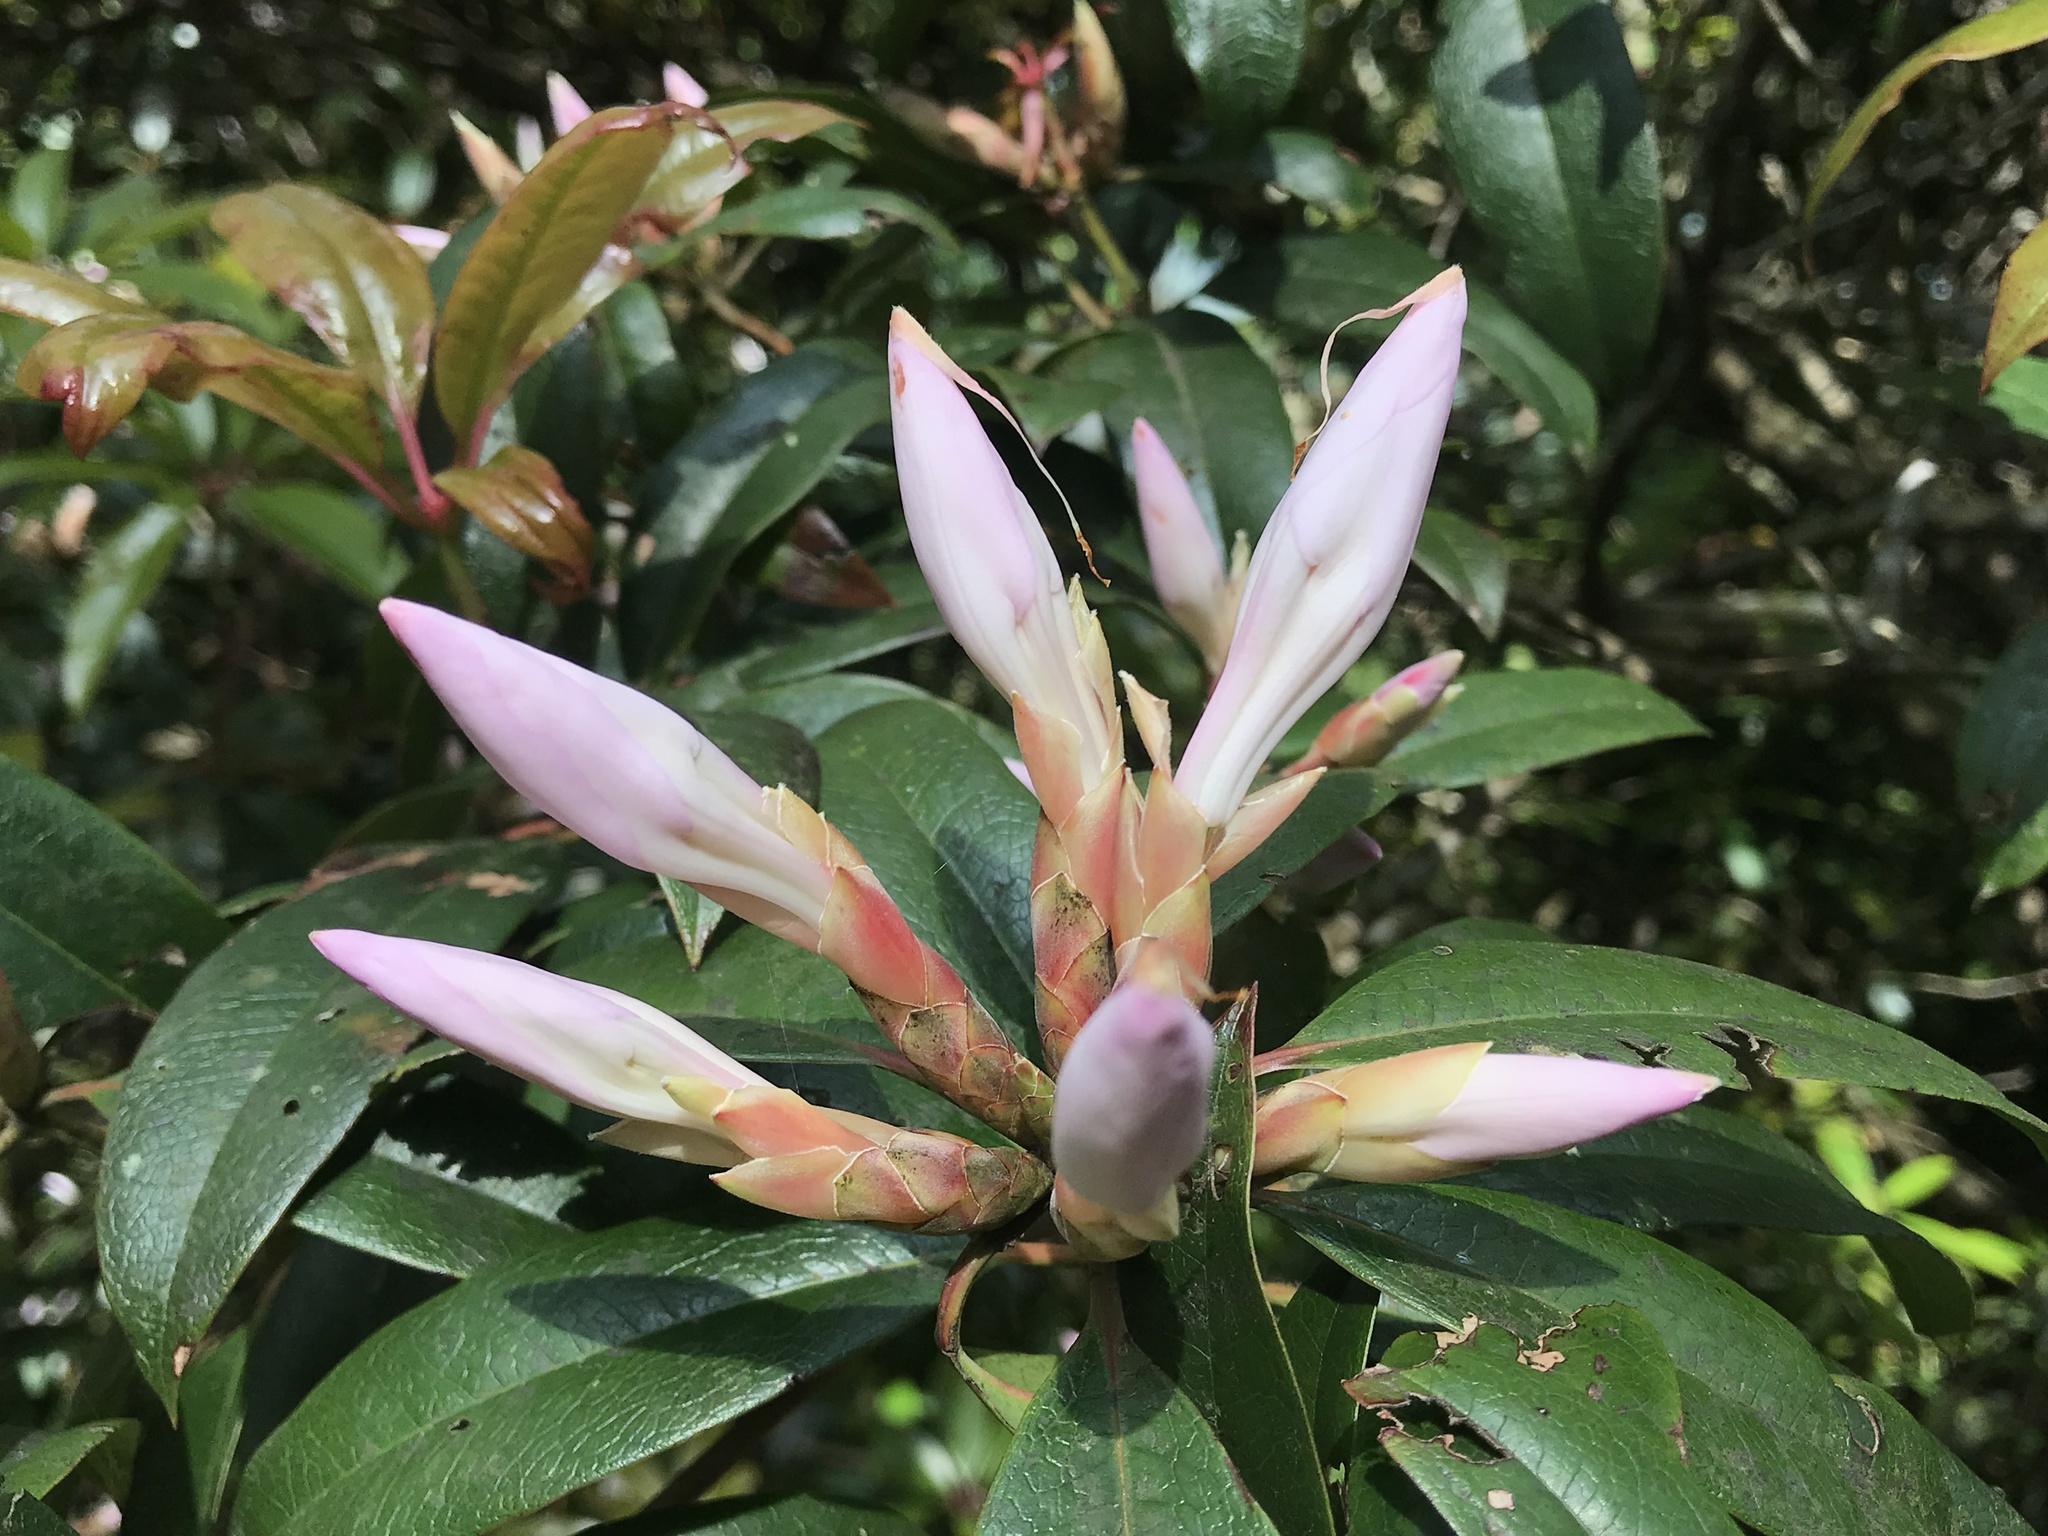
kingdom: Plantae
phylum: Tracheophyta
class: Magnoliopsida
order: Ericales
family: Ericaceae
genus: Rhododendron
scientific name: Rhododendron latoucheae
